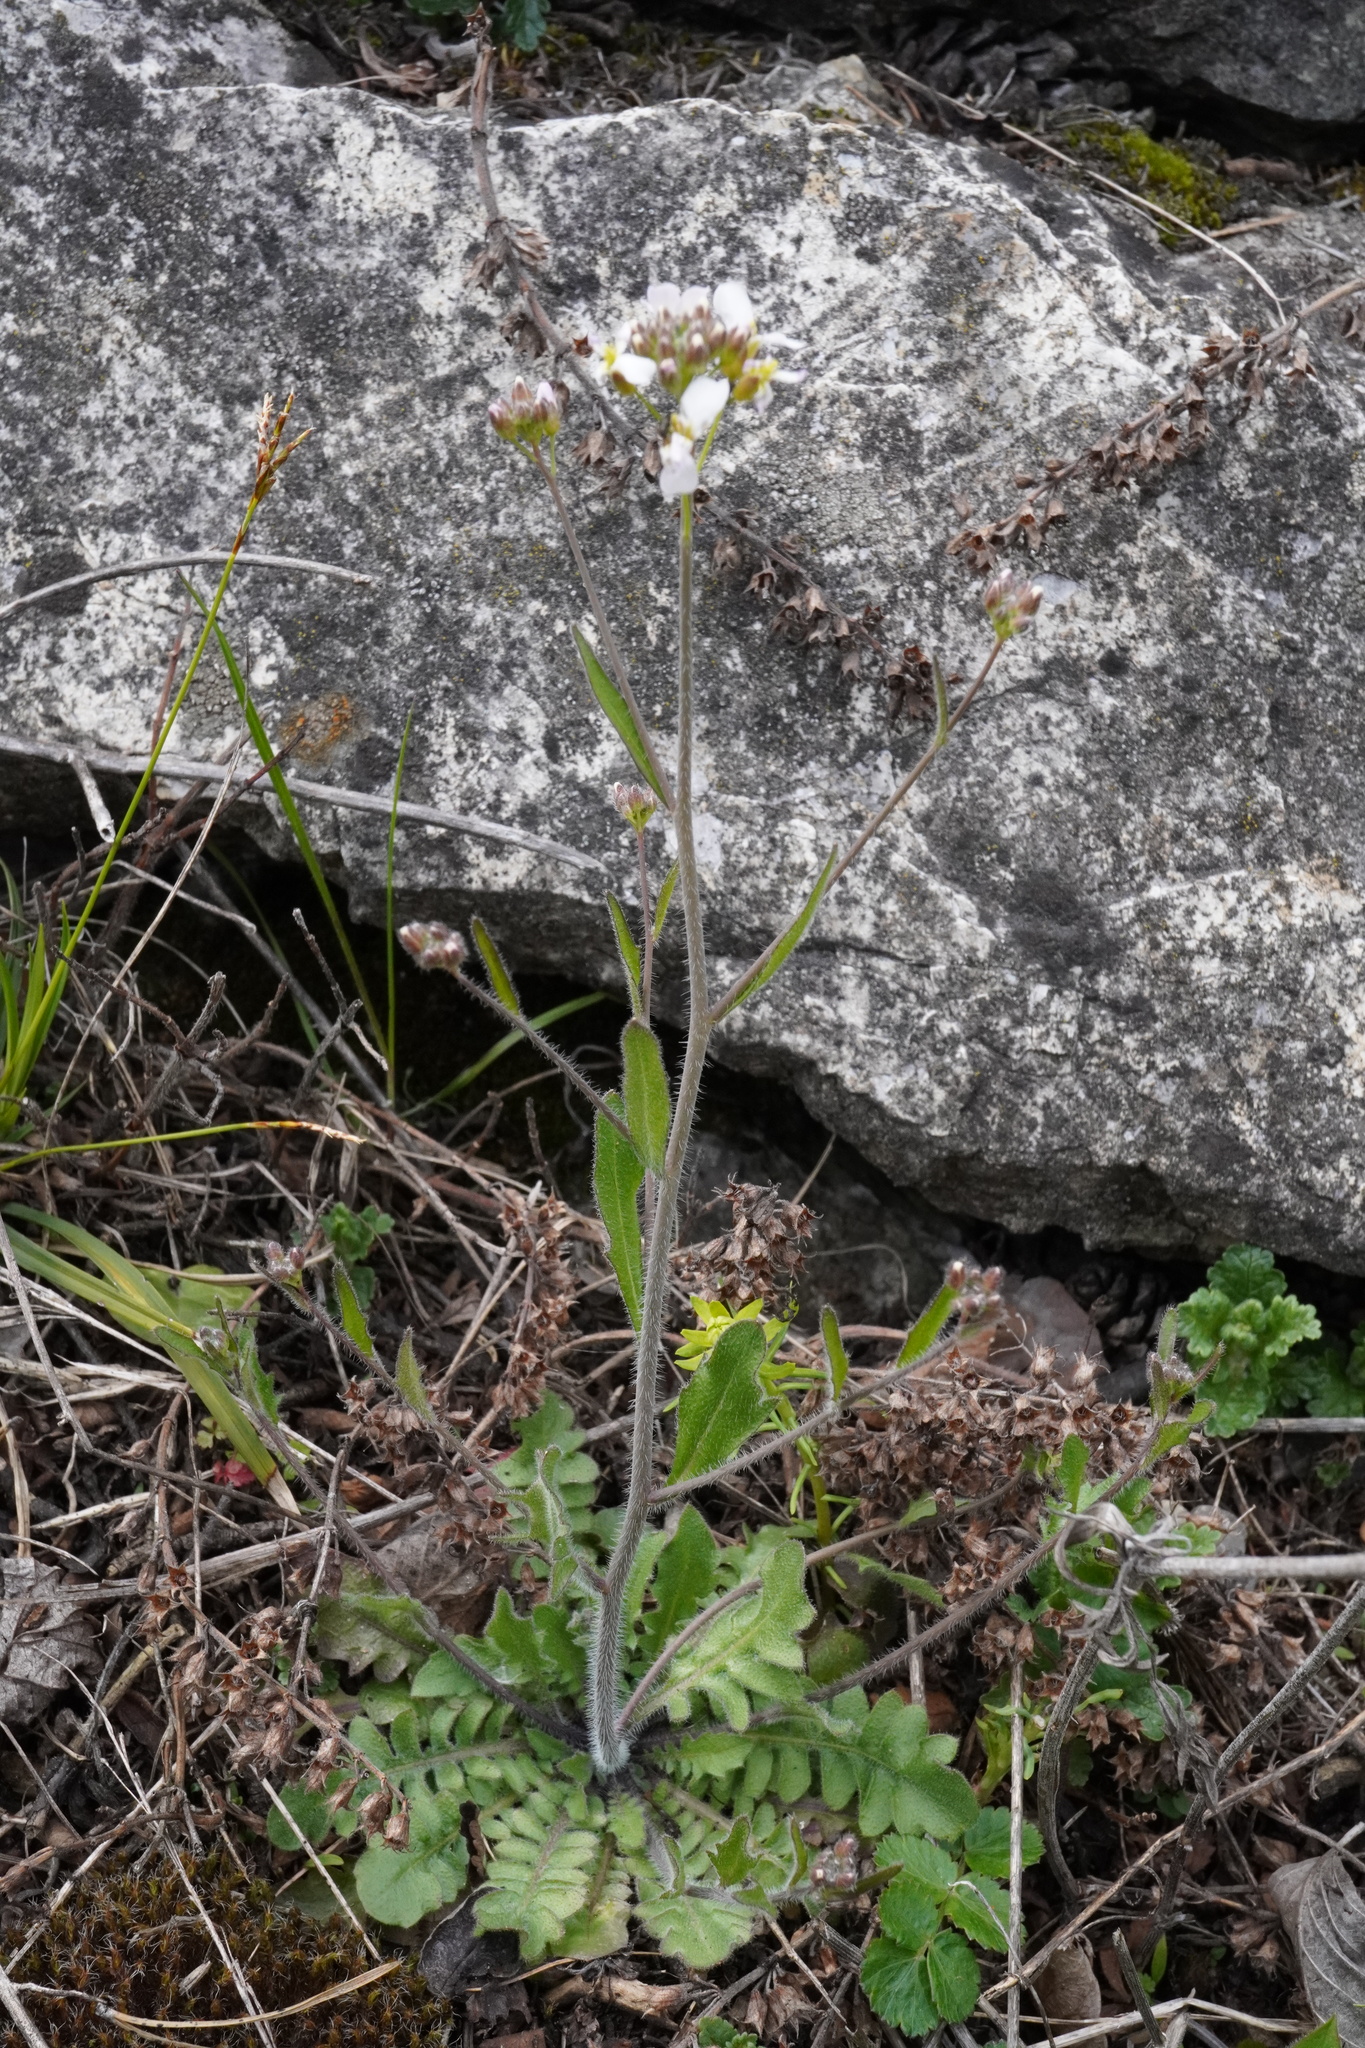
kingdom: Plantae
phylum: Tracheophyta
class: Magnoliopsida
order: Brassicales
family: Brassicaceae
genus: Arabidopsis
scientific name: Arabidopsis arenosa
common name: Sand rock-cress
